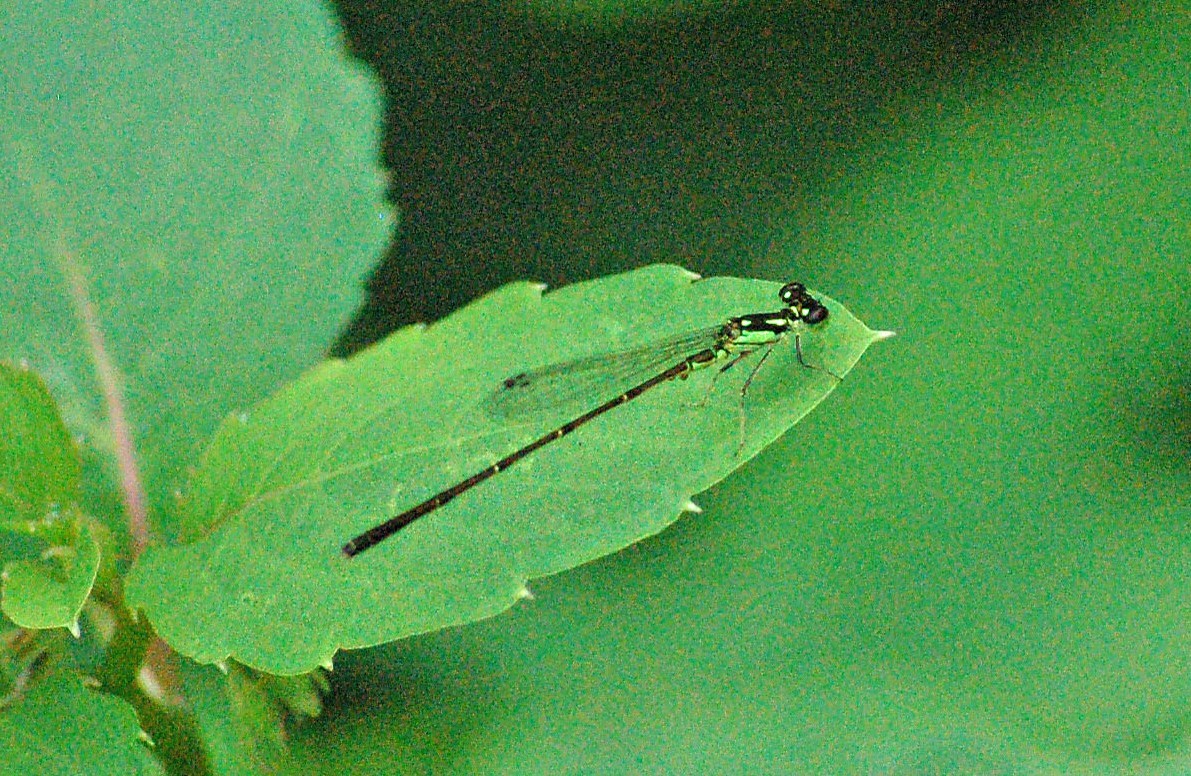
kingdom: Animalia
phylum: Arthropoda
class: Insecta
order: Odonata
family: Coenagrionidae
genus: Ischnura
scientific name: Ischnura posita
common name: Fragile forktail
